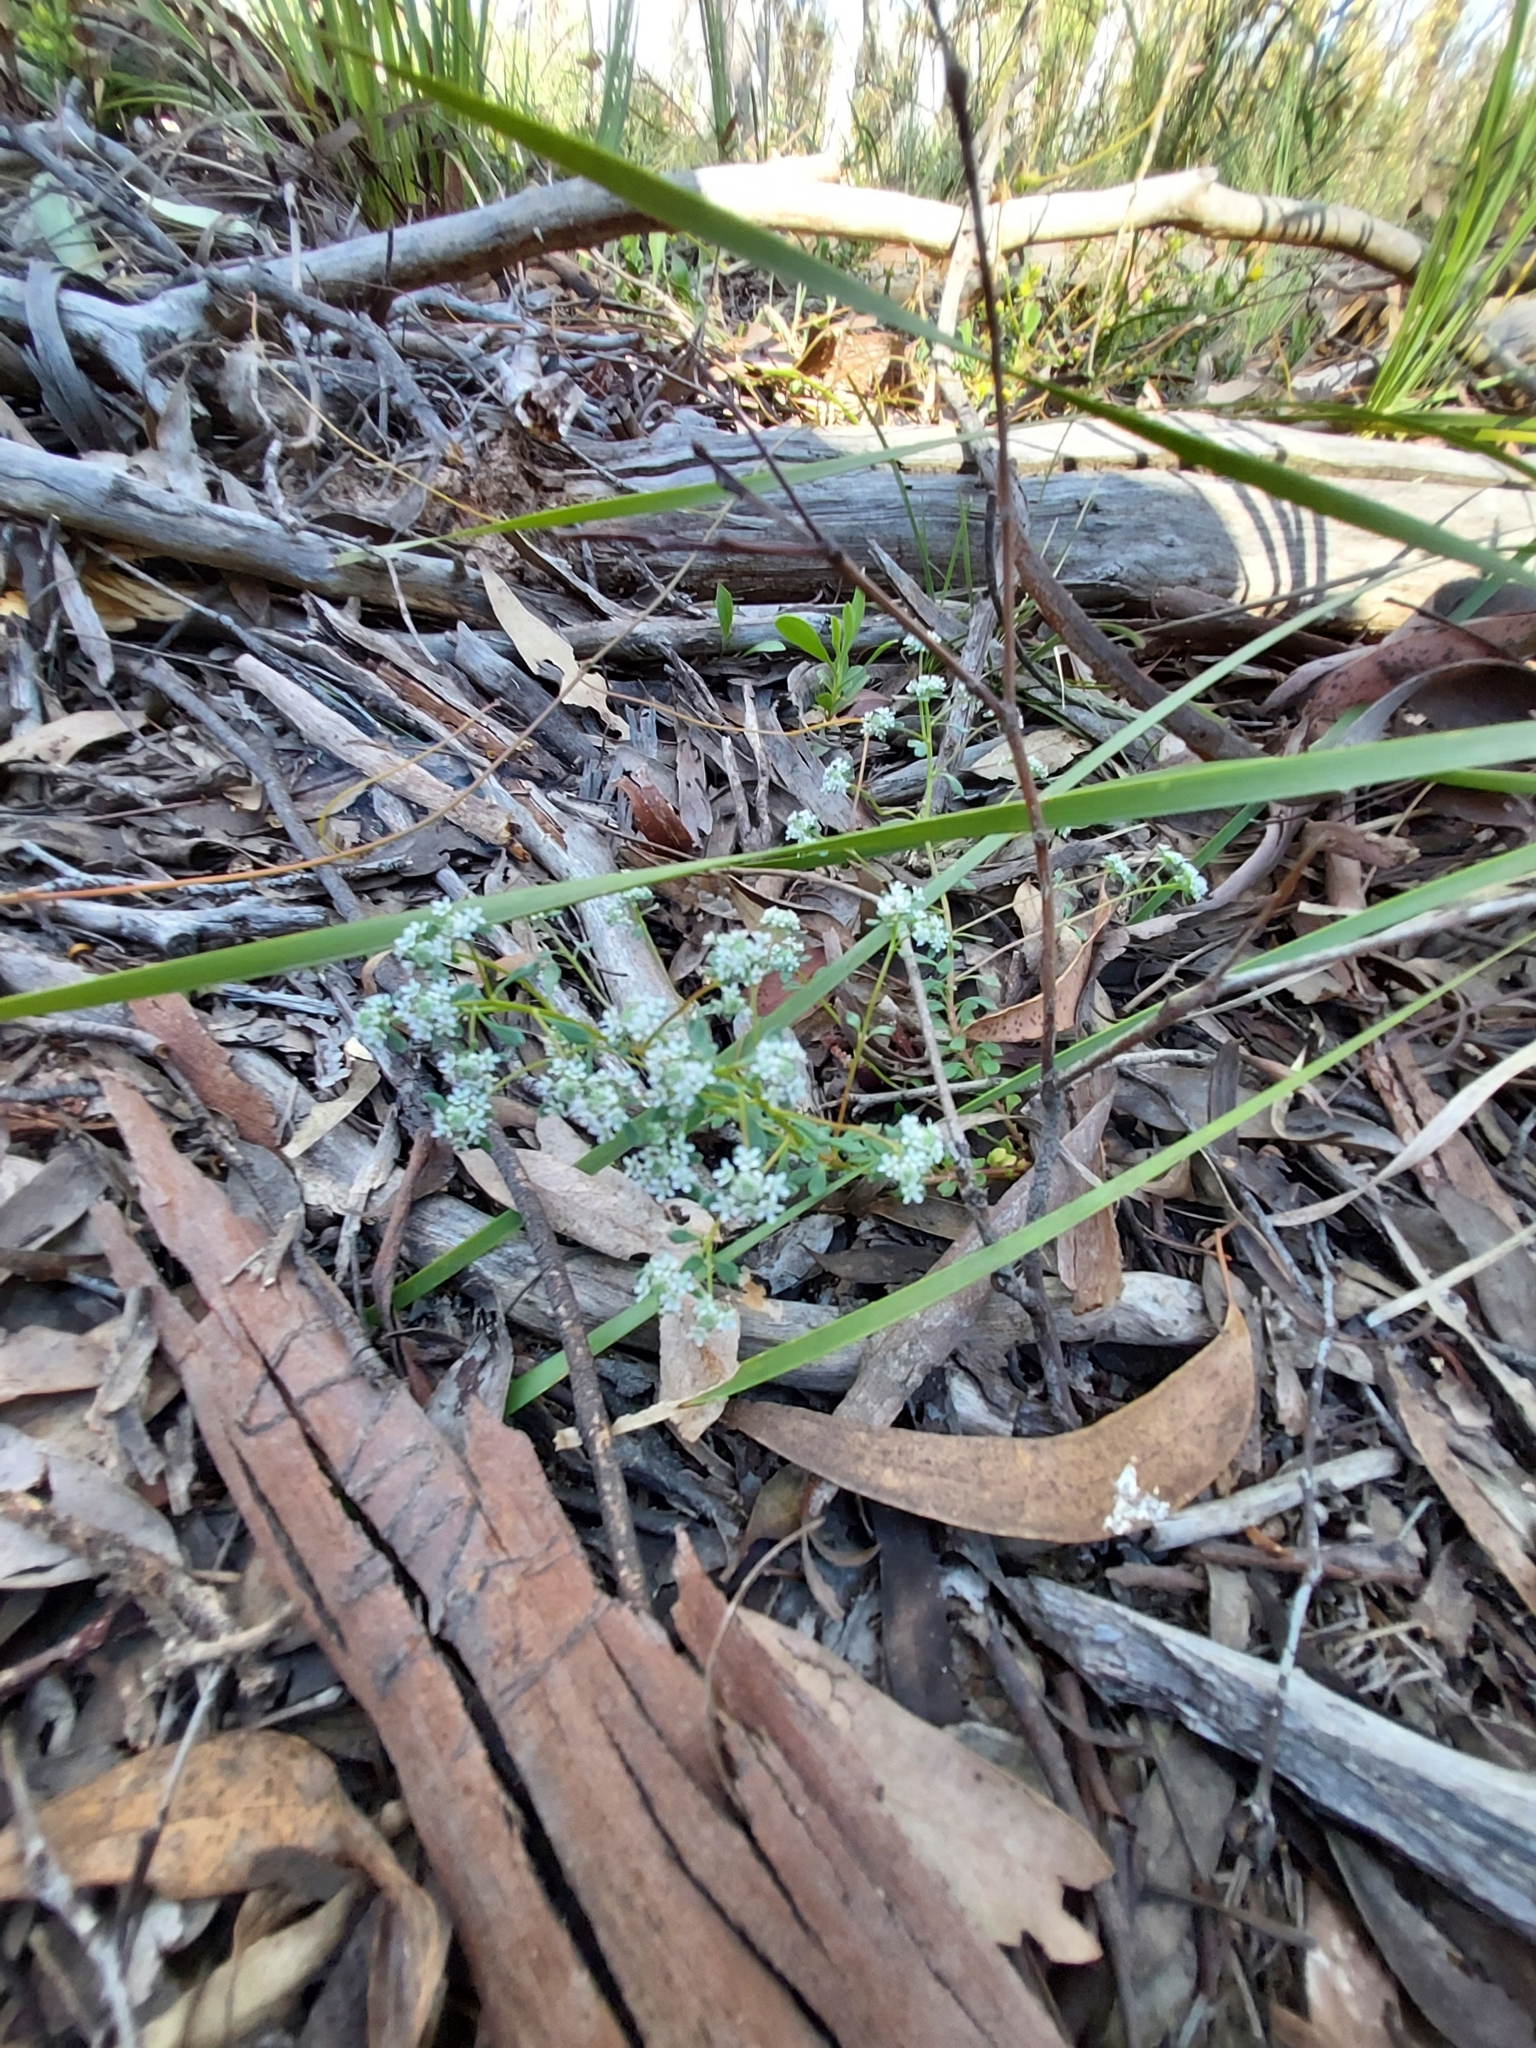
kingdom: Plantae
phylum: Tracheophyta
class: Magnoliopsida
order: Malpighiales
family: Phyllanthaceae
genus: Poranthera
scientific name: Poranthera microphylla
